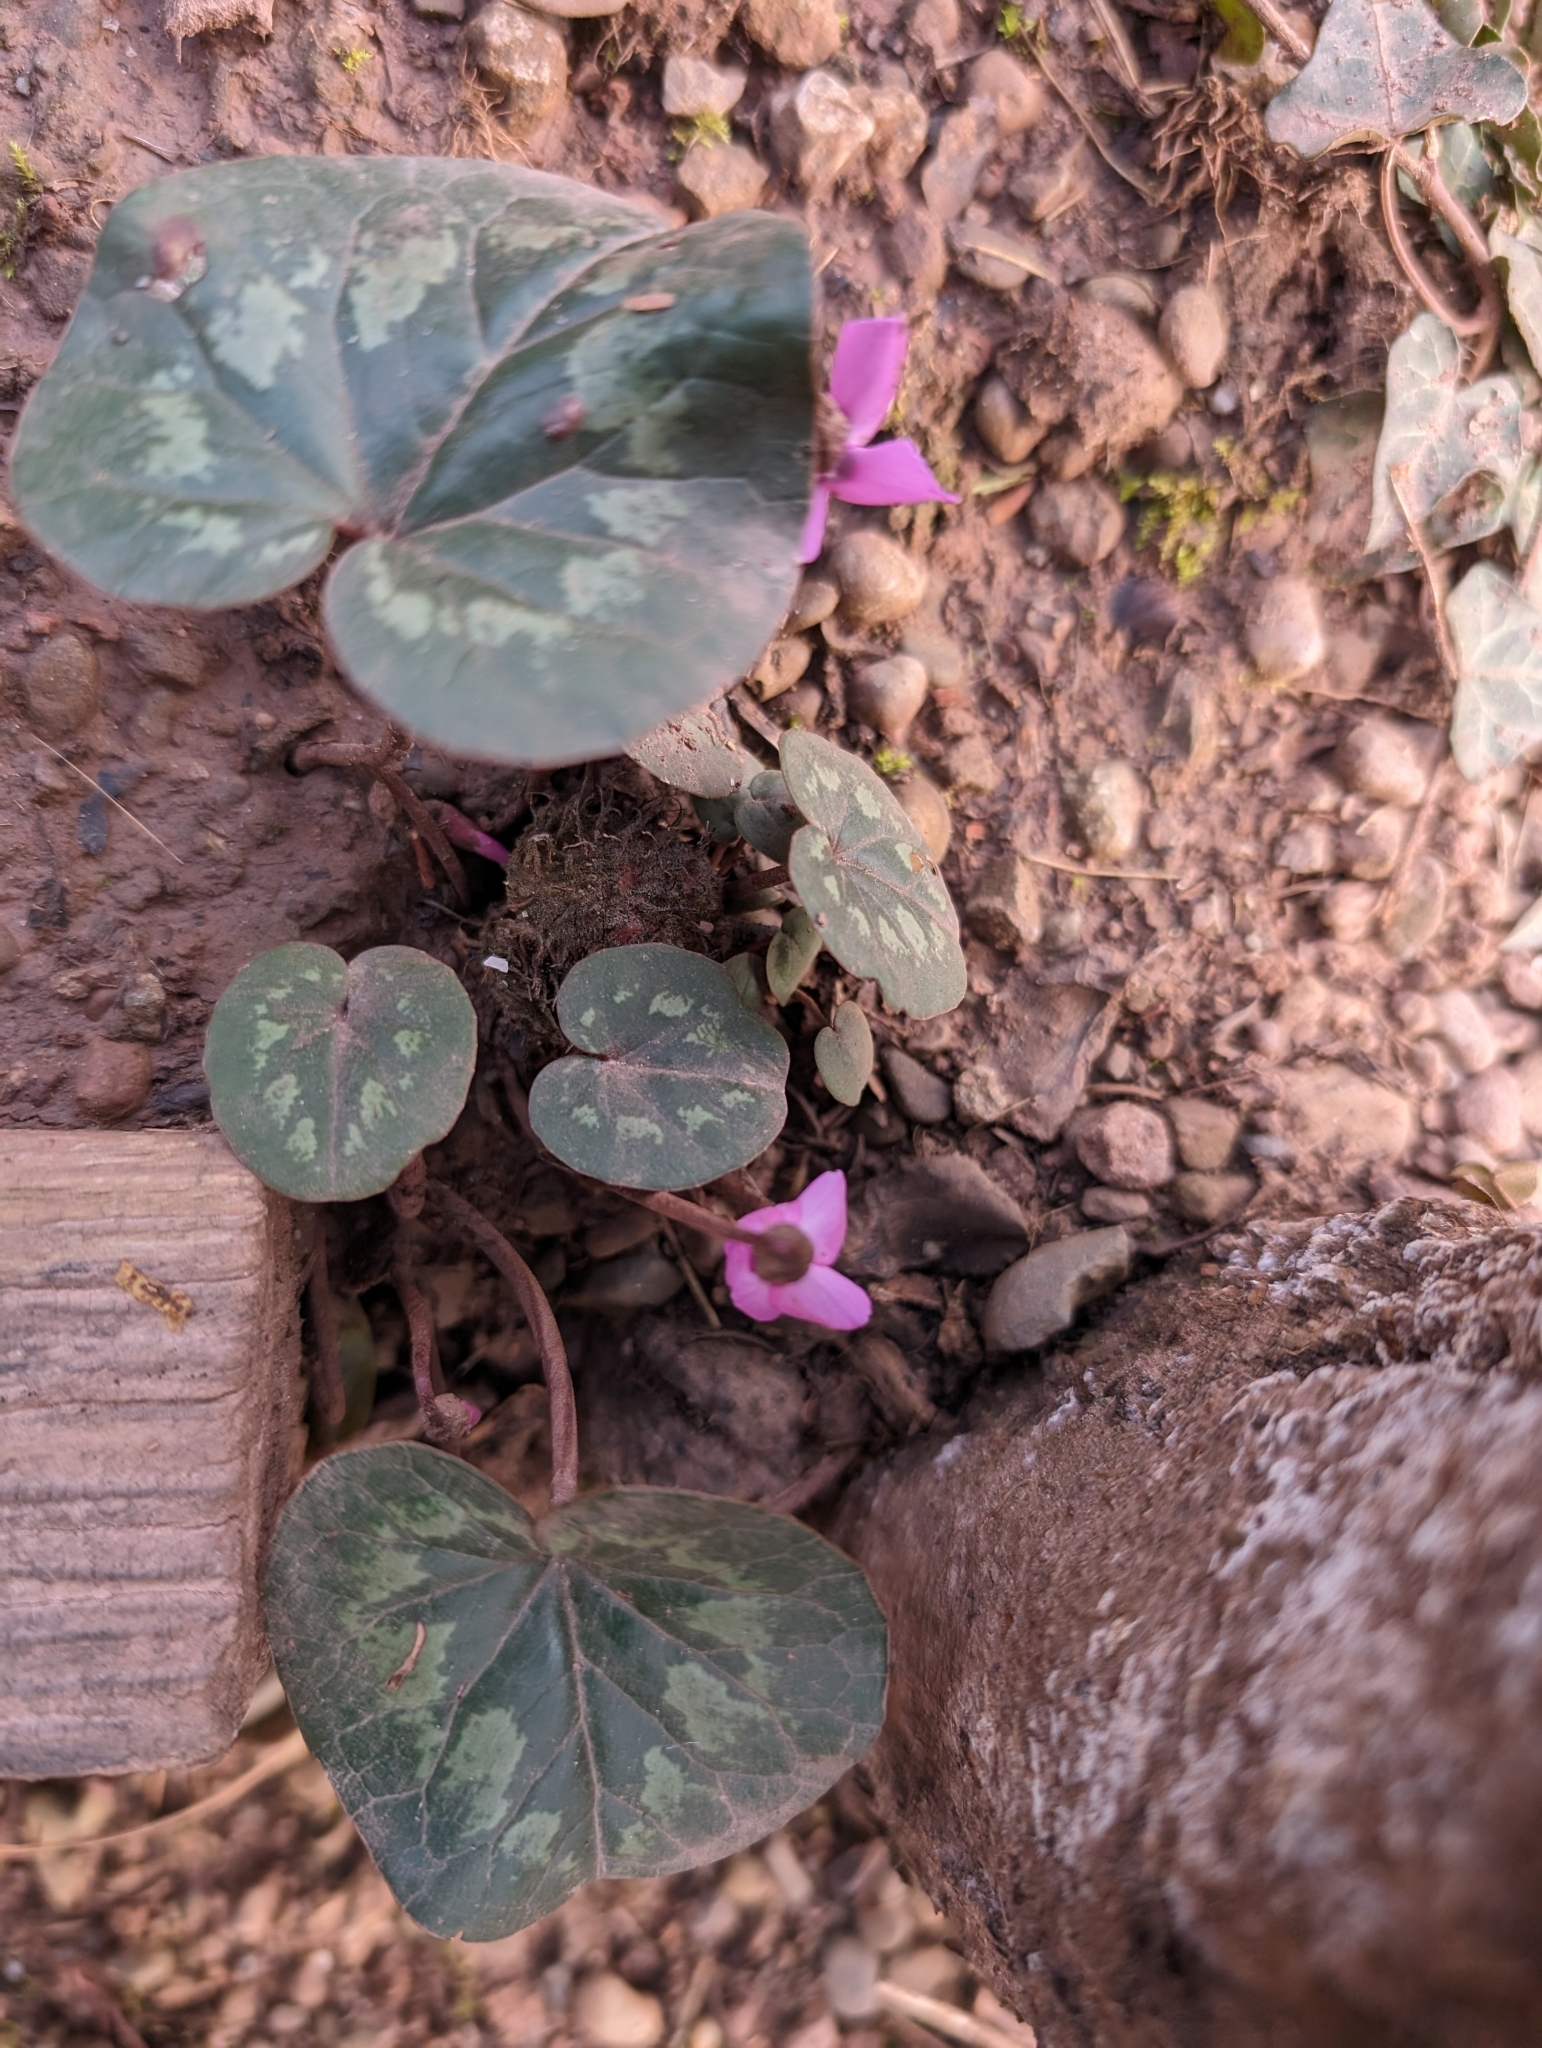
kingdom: Plantae
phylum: Tracheophyta
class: Magnoliopsida
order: Ericales
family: Primulaceae
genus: Cyclamen
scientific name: Cyclamen coum
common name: Eastern sowbread
